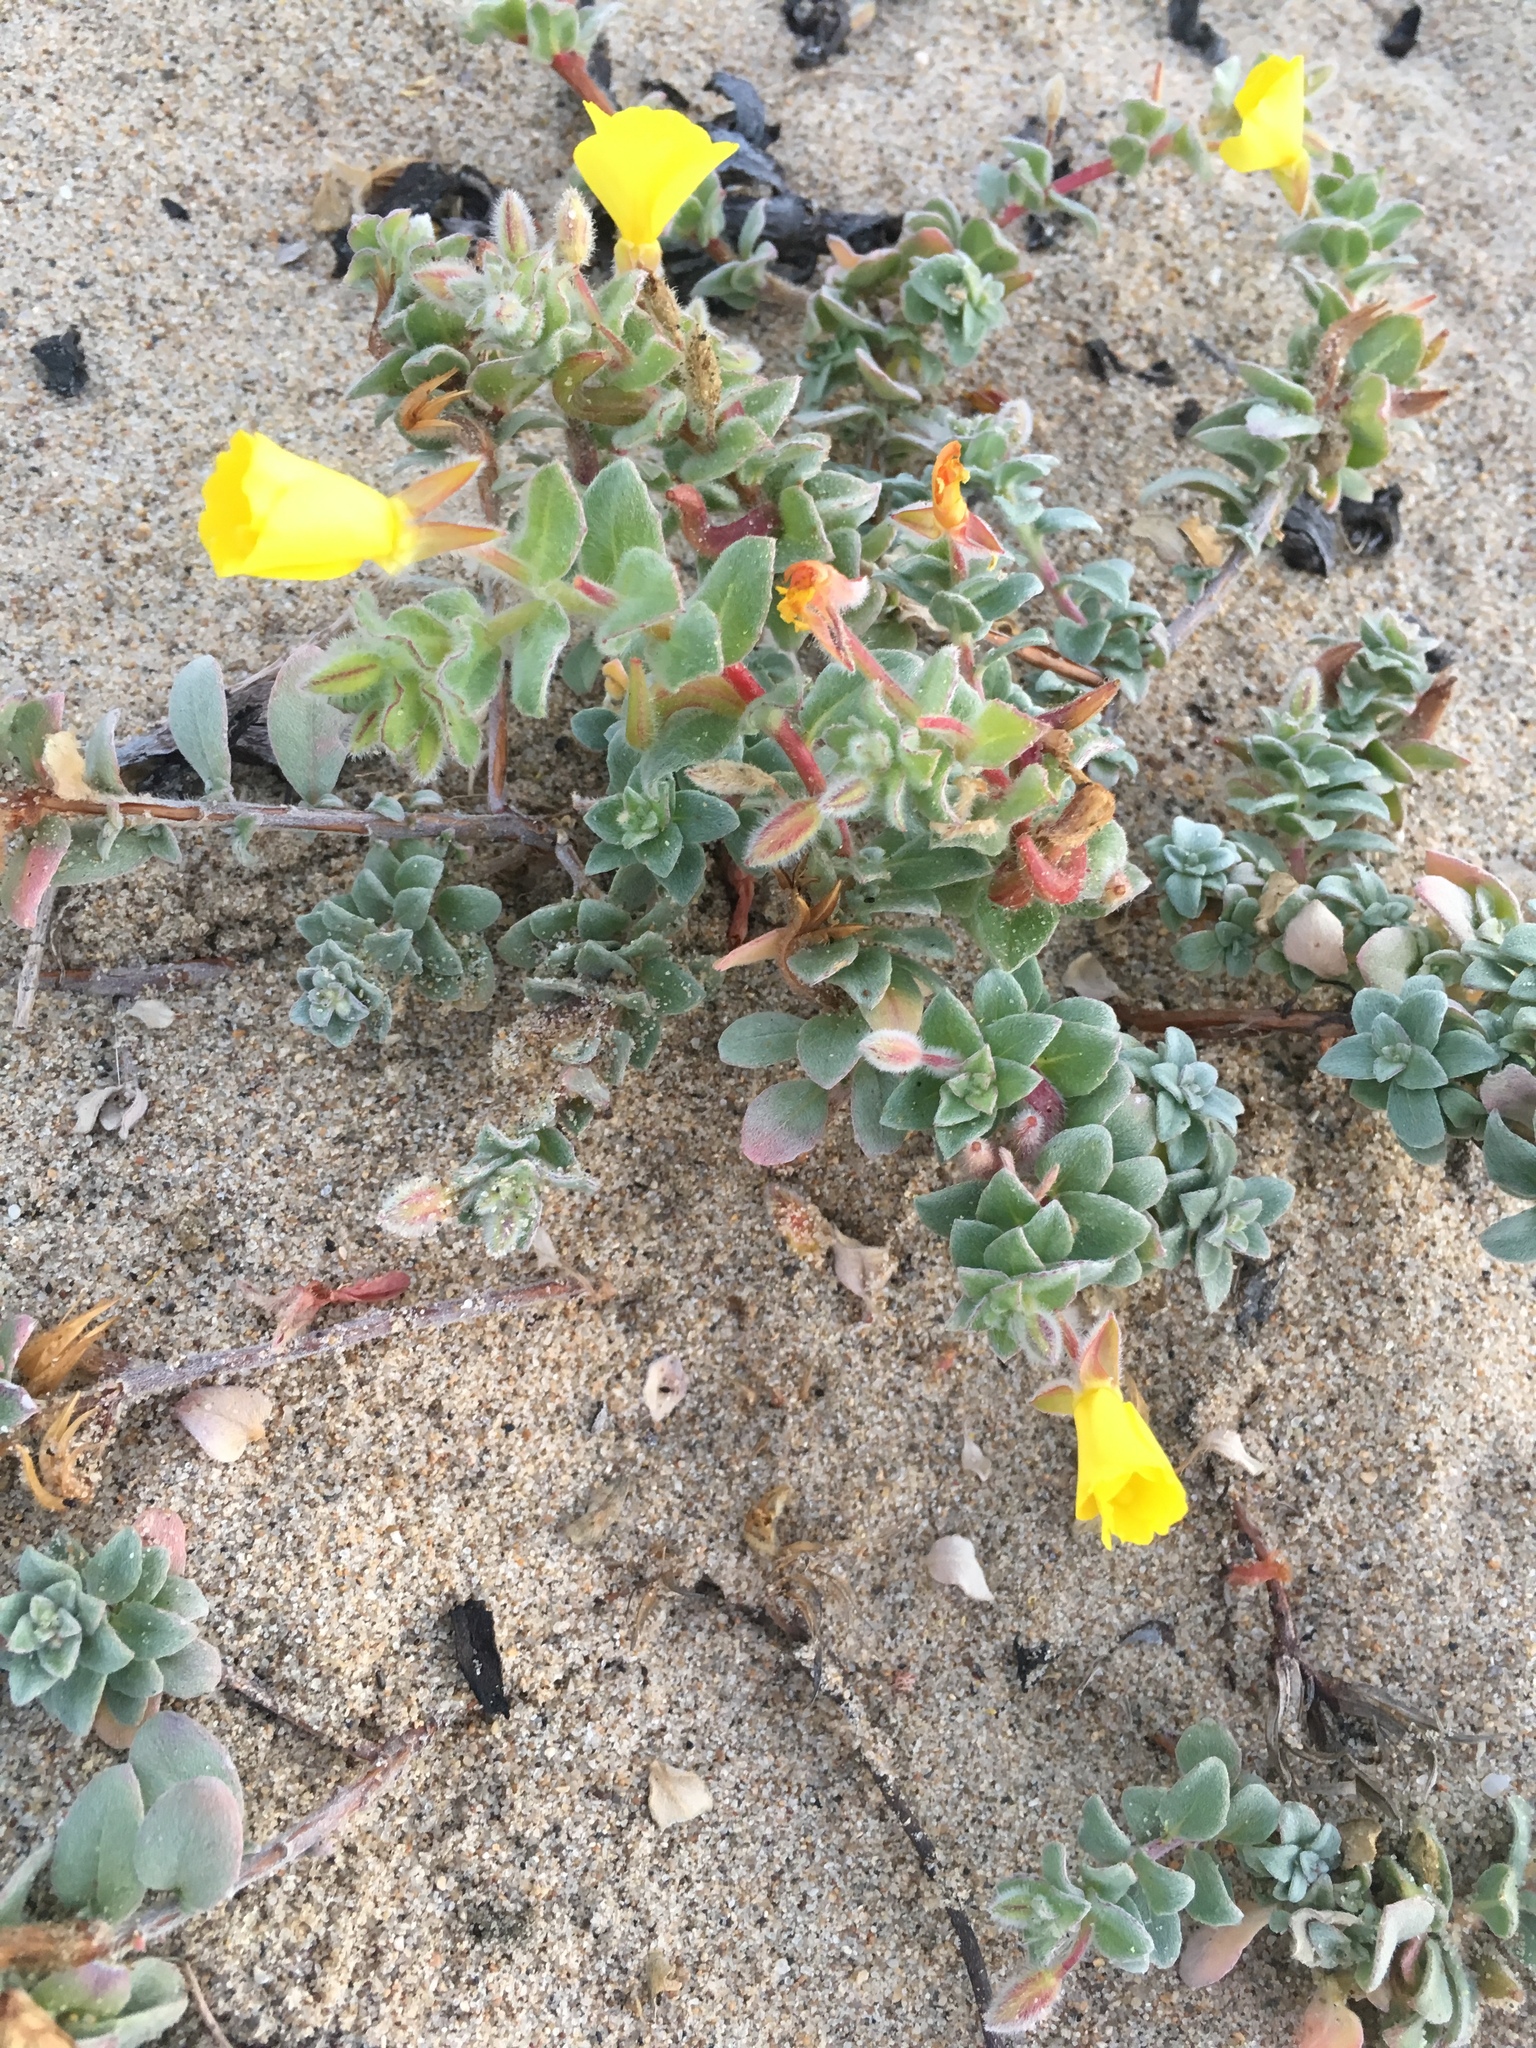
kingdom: Plantae
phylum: Tracheophyta
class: Magnoliopsida
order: Myrtales
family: Onagraceae
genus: Camissoniopsis
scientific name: Camissoniopsis cheiranthifolia
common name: Beach suncup
